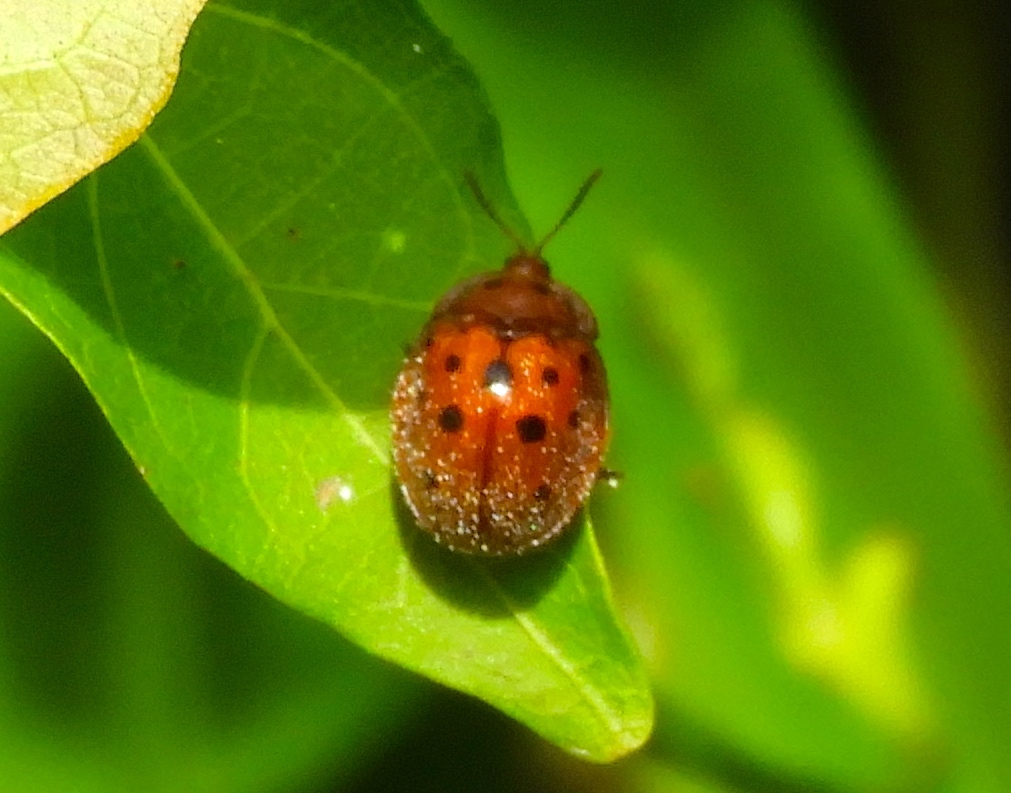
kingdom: Animalia
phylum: Arthropoda
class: Insecta
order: Coleoptera
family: Chrysomelidae
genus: Chelymorpha
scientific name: Chelymorpha
